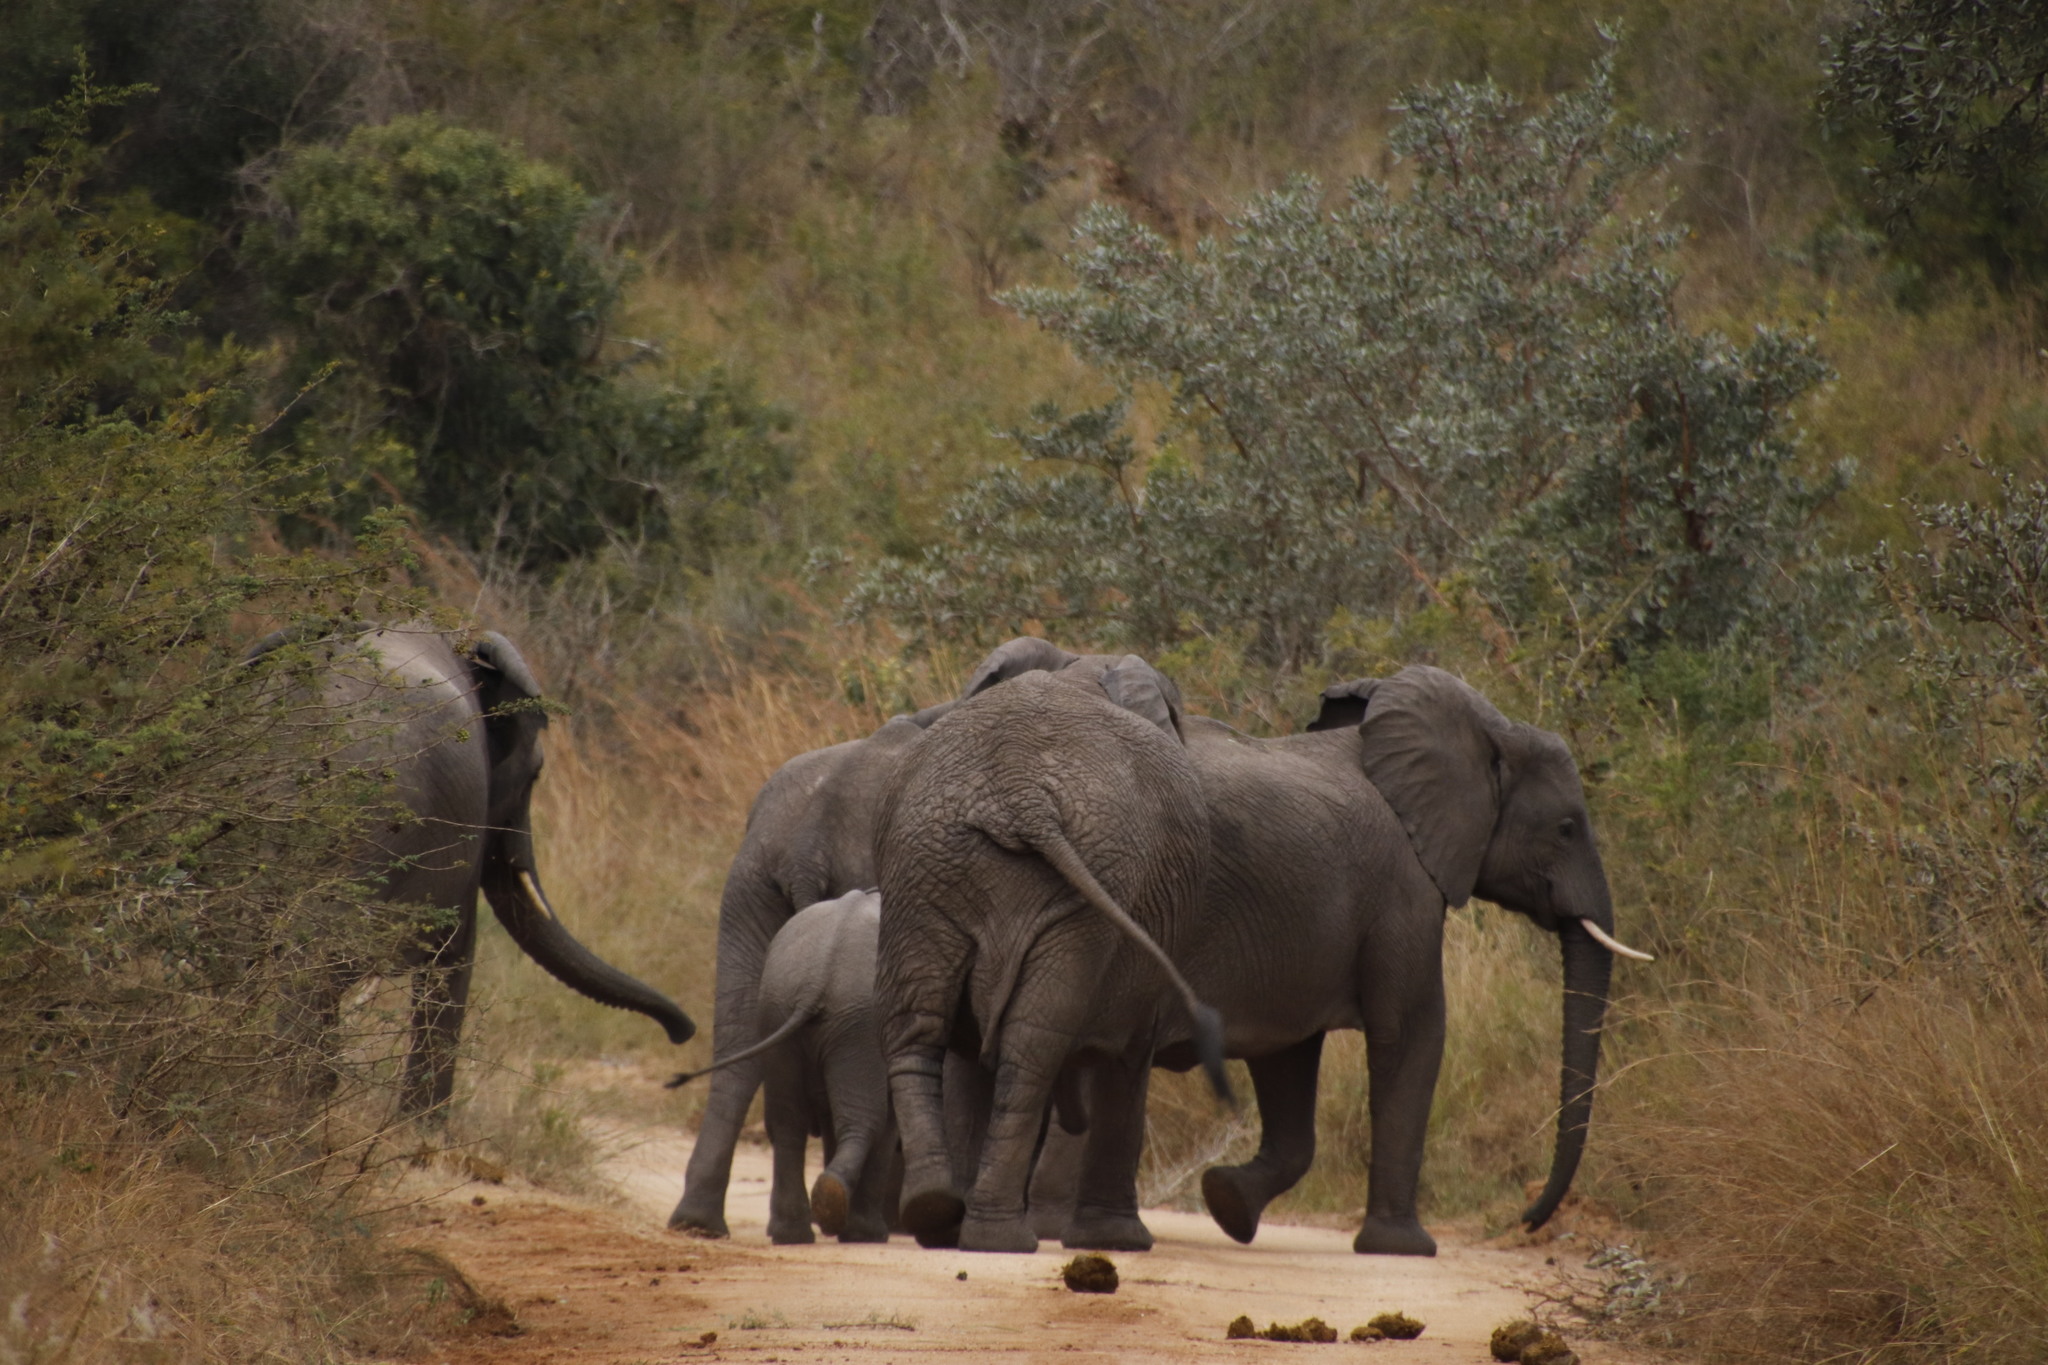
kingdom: Animalia
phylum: Chordata
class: Mammalia
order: Proboscidea
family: Elephantidae
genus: Loxodonta
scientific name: Loxodonta africana
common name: African elephant
